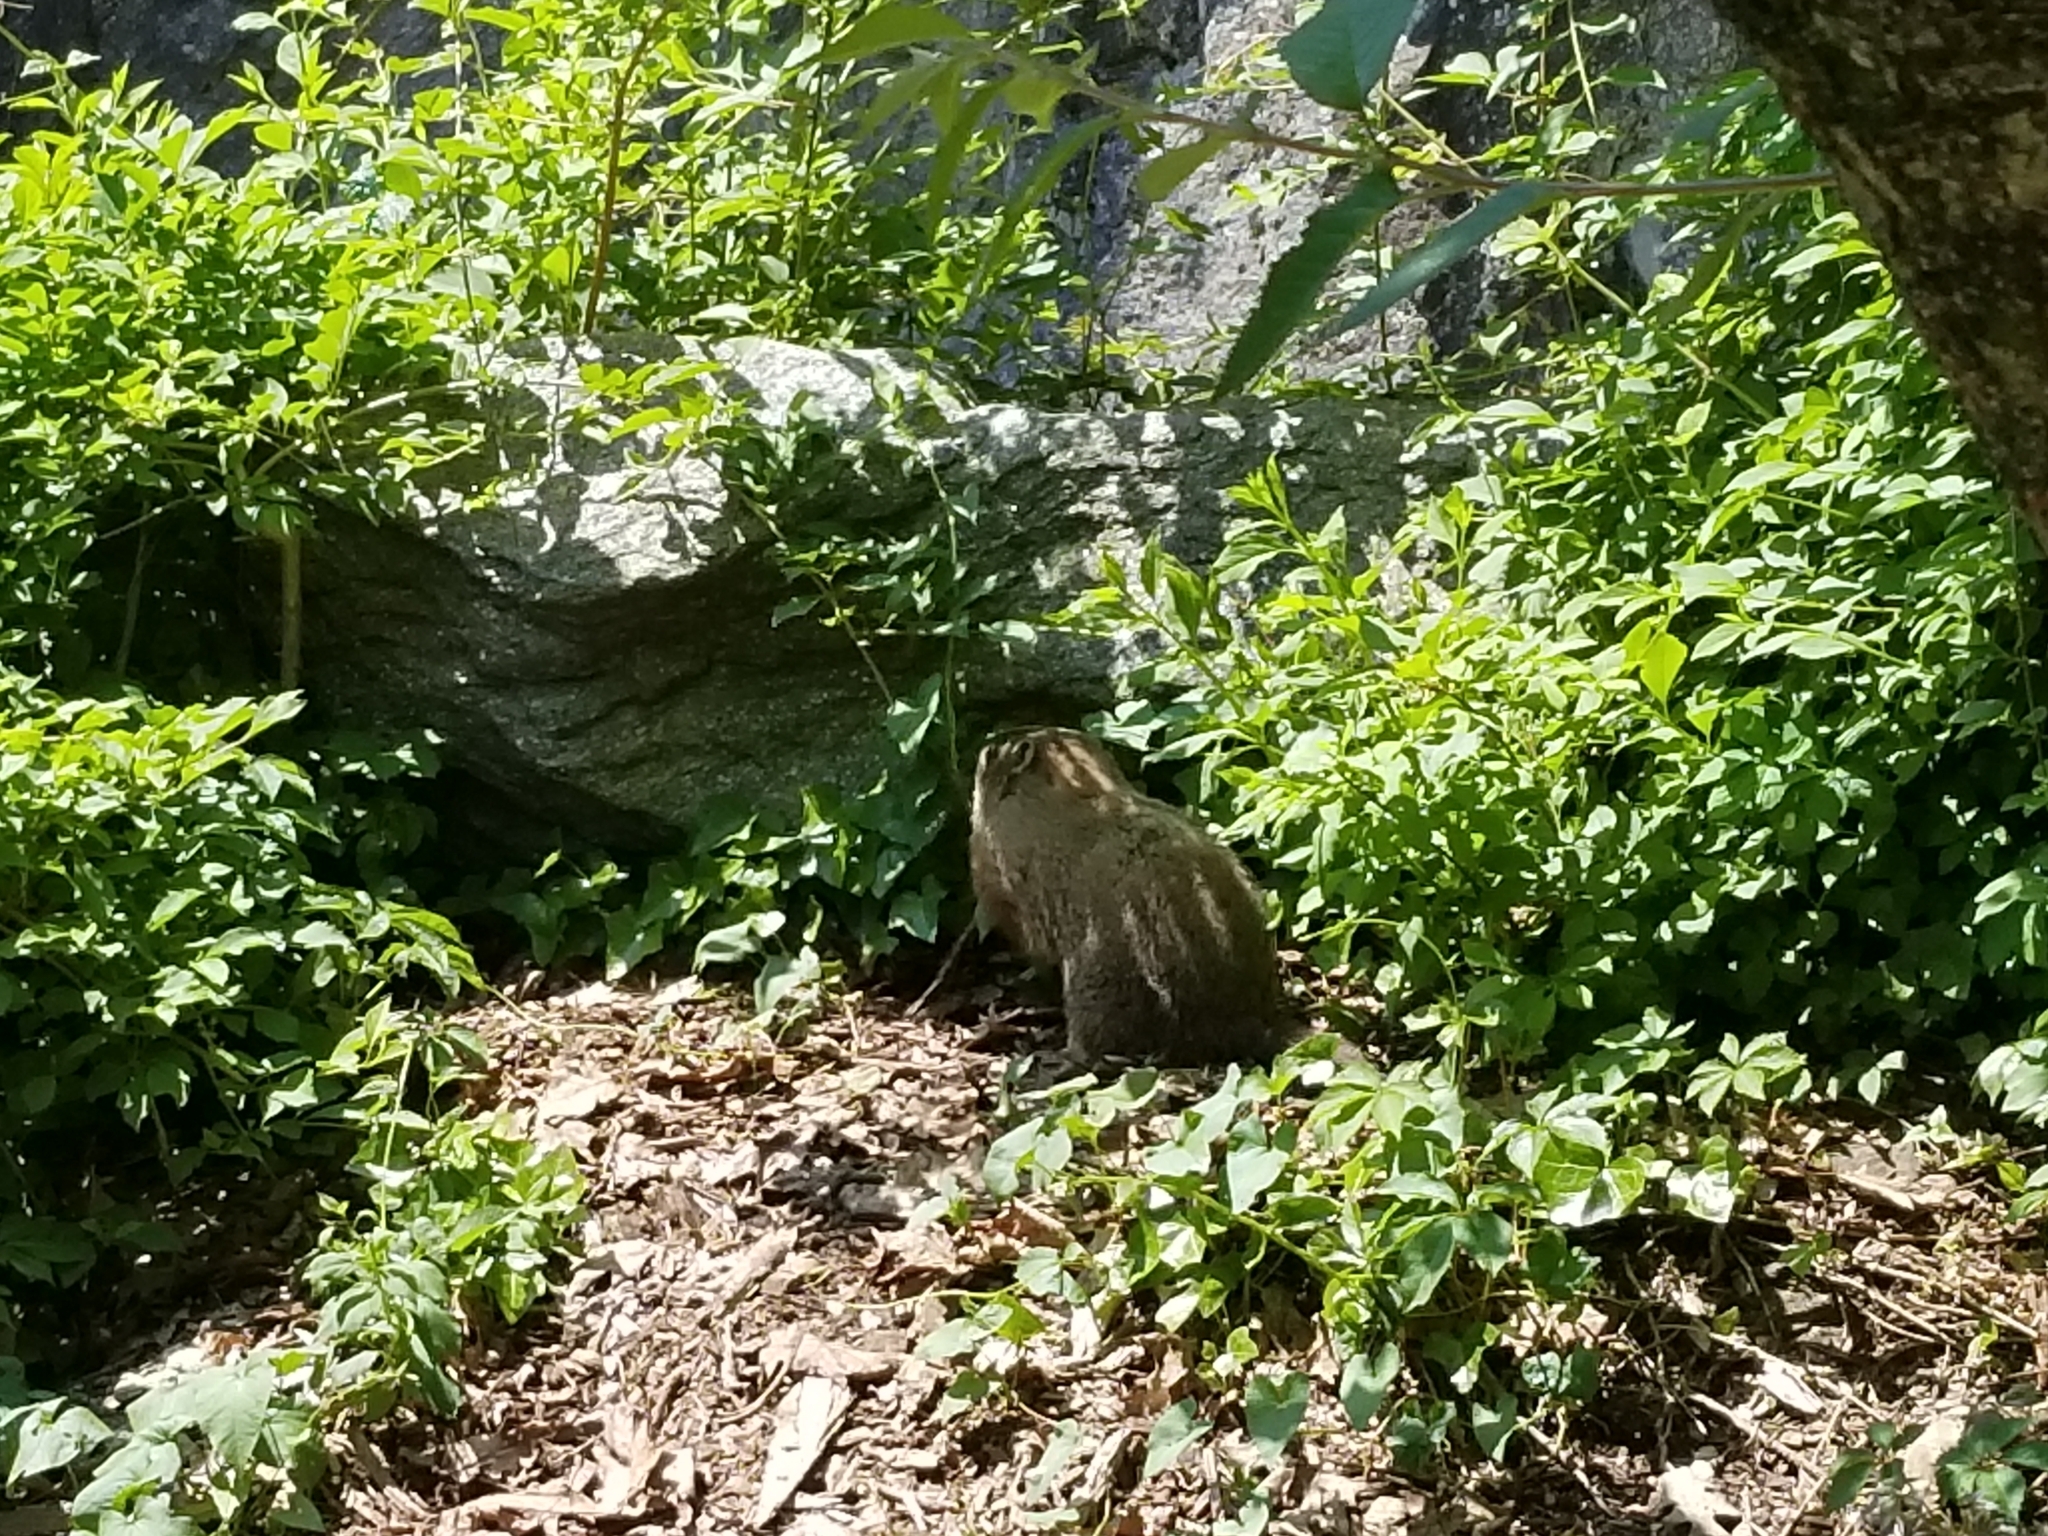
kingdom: Animalia
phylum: Chordata
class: Mammalia
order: Rodentia
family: Sciuridae
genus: Marmota
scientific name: Marmota monax
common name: Groundhog
